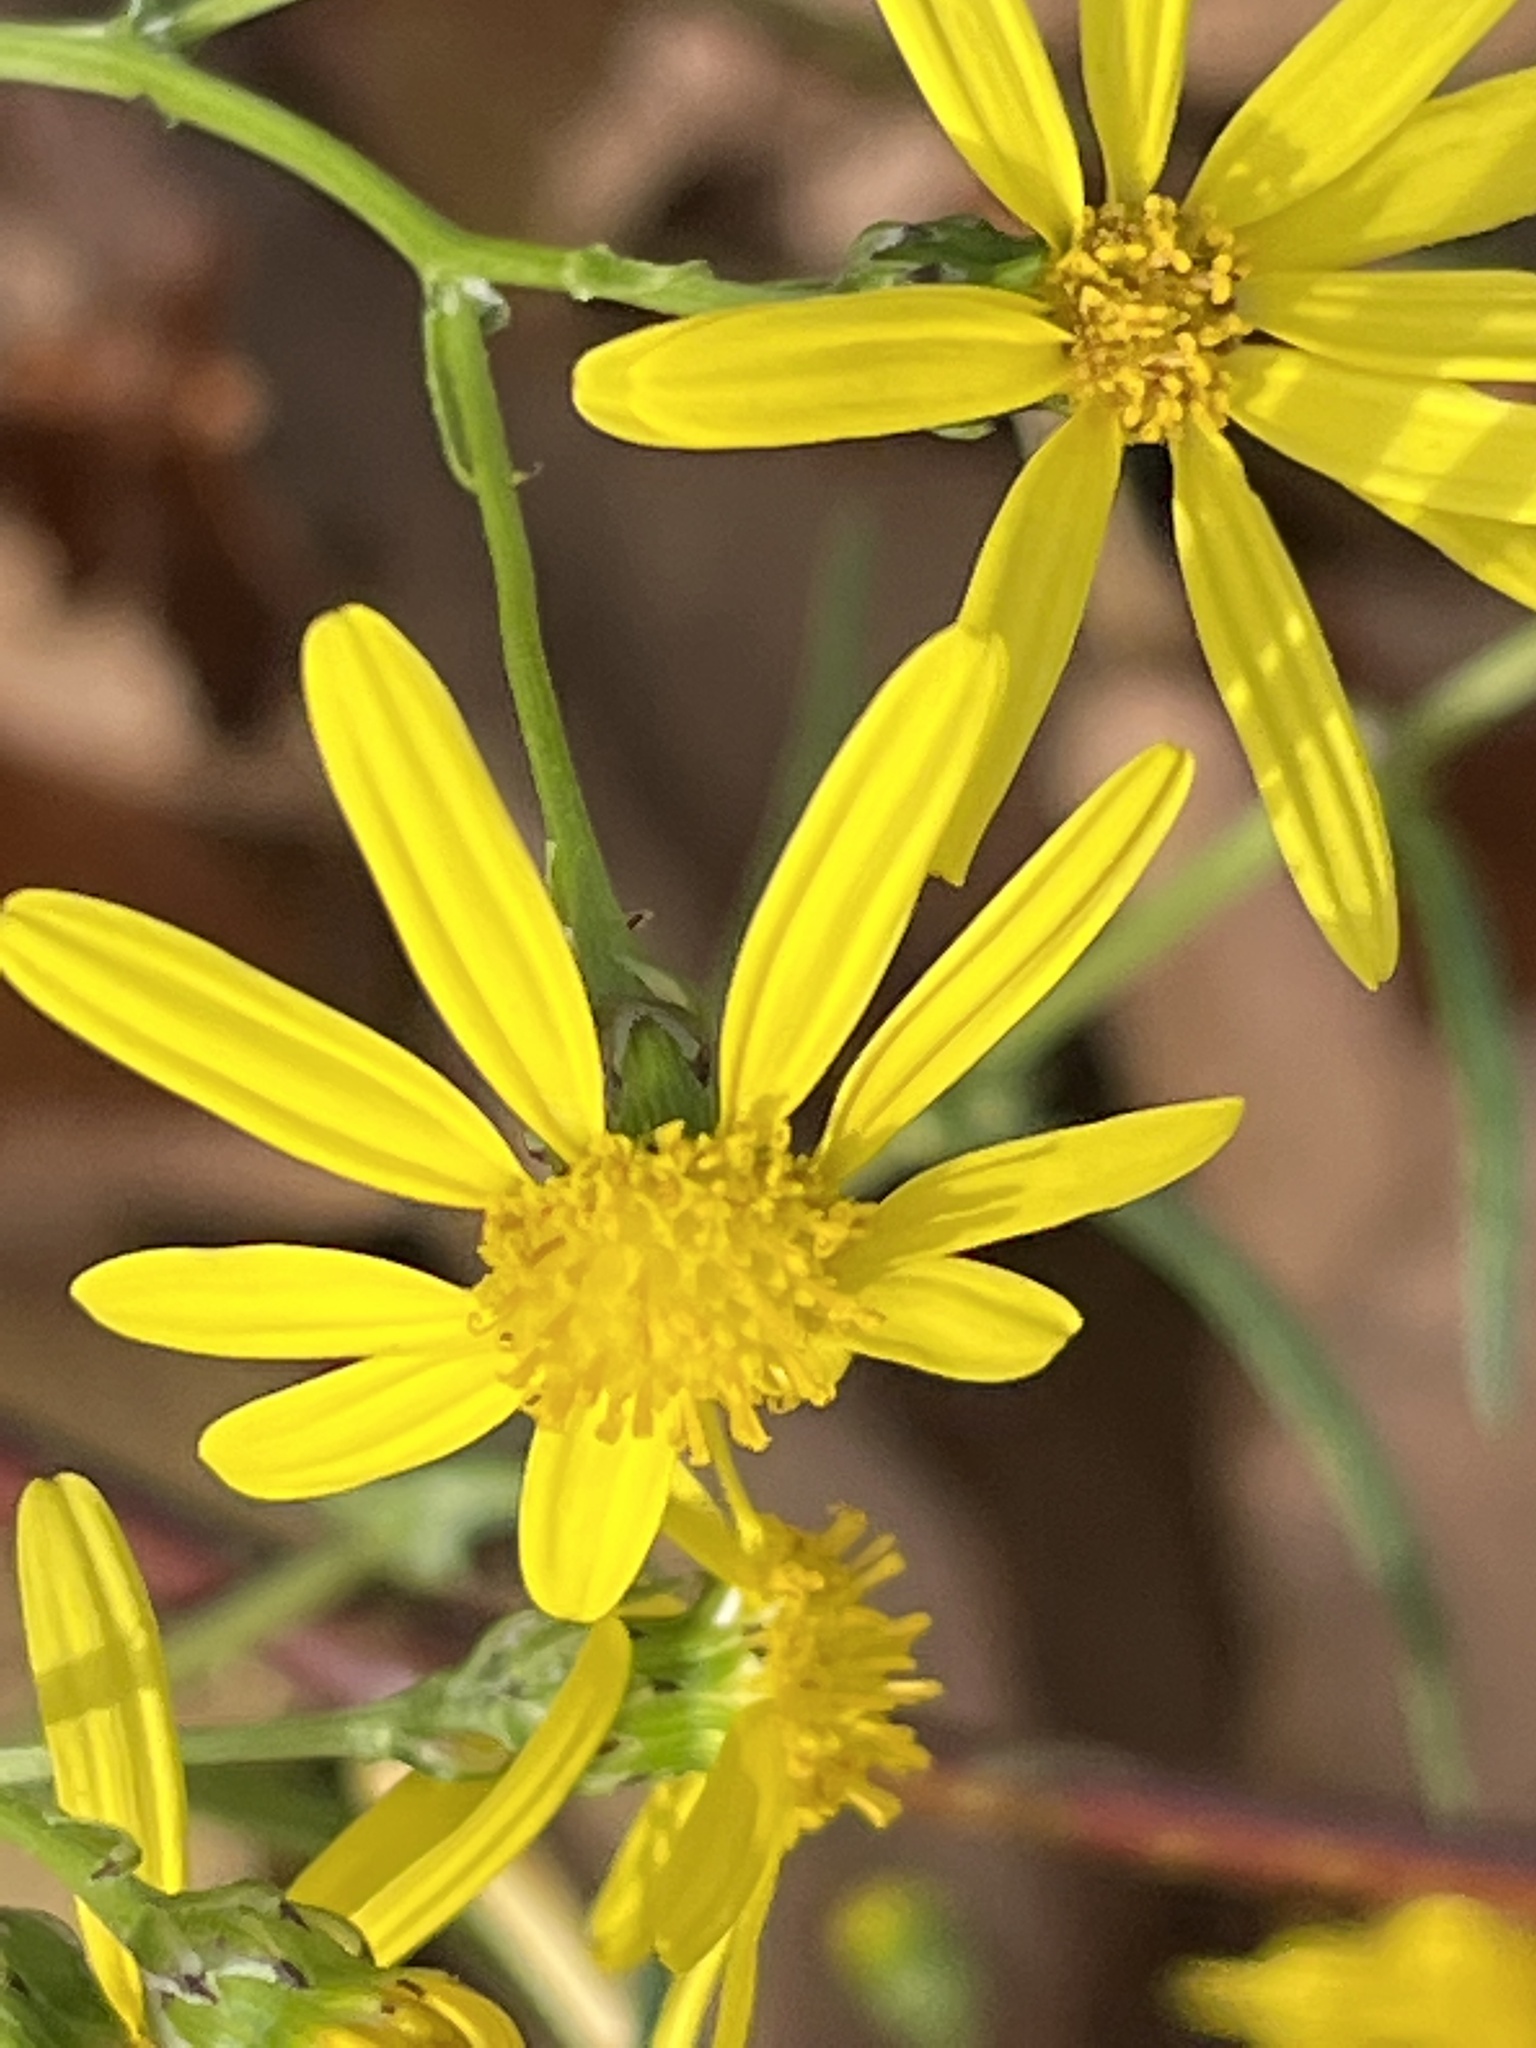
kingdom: Plantae
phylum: Tracheophyta
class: Magnoliopsida
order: Asterales
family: Asteraceae
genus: Senecio
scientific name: Senecio inaequidens
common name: Narrow-leaved ragwort
